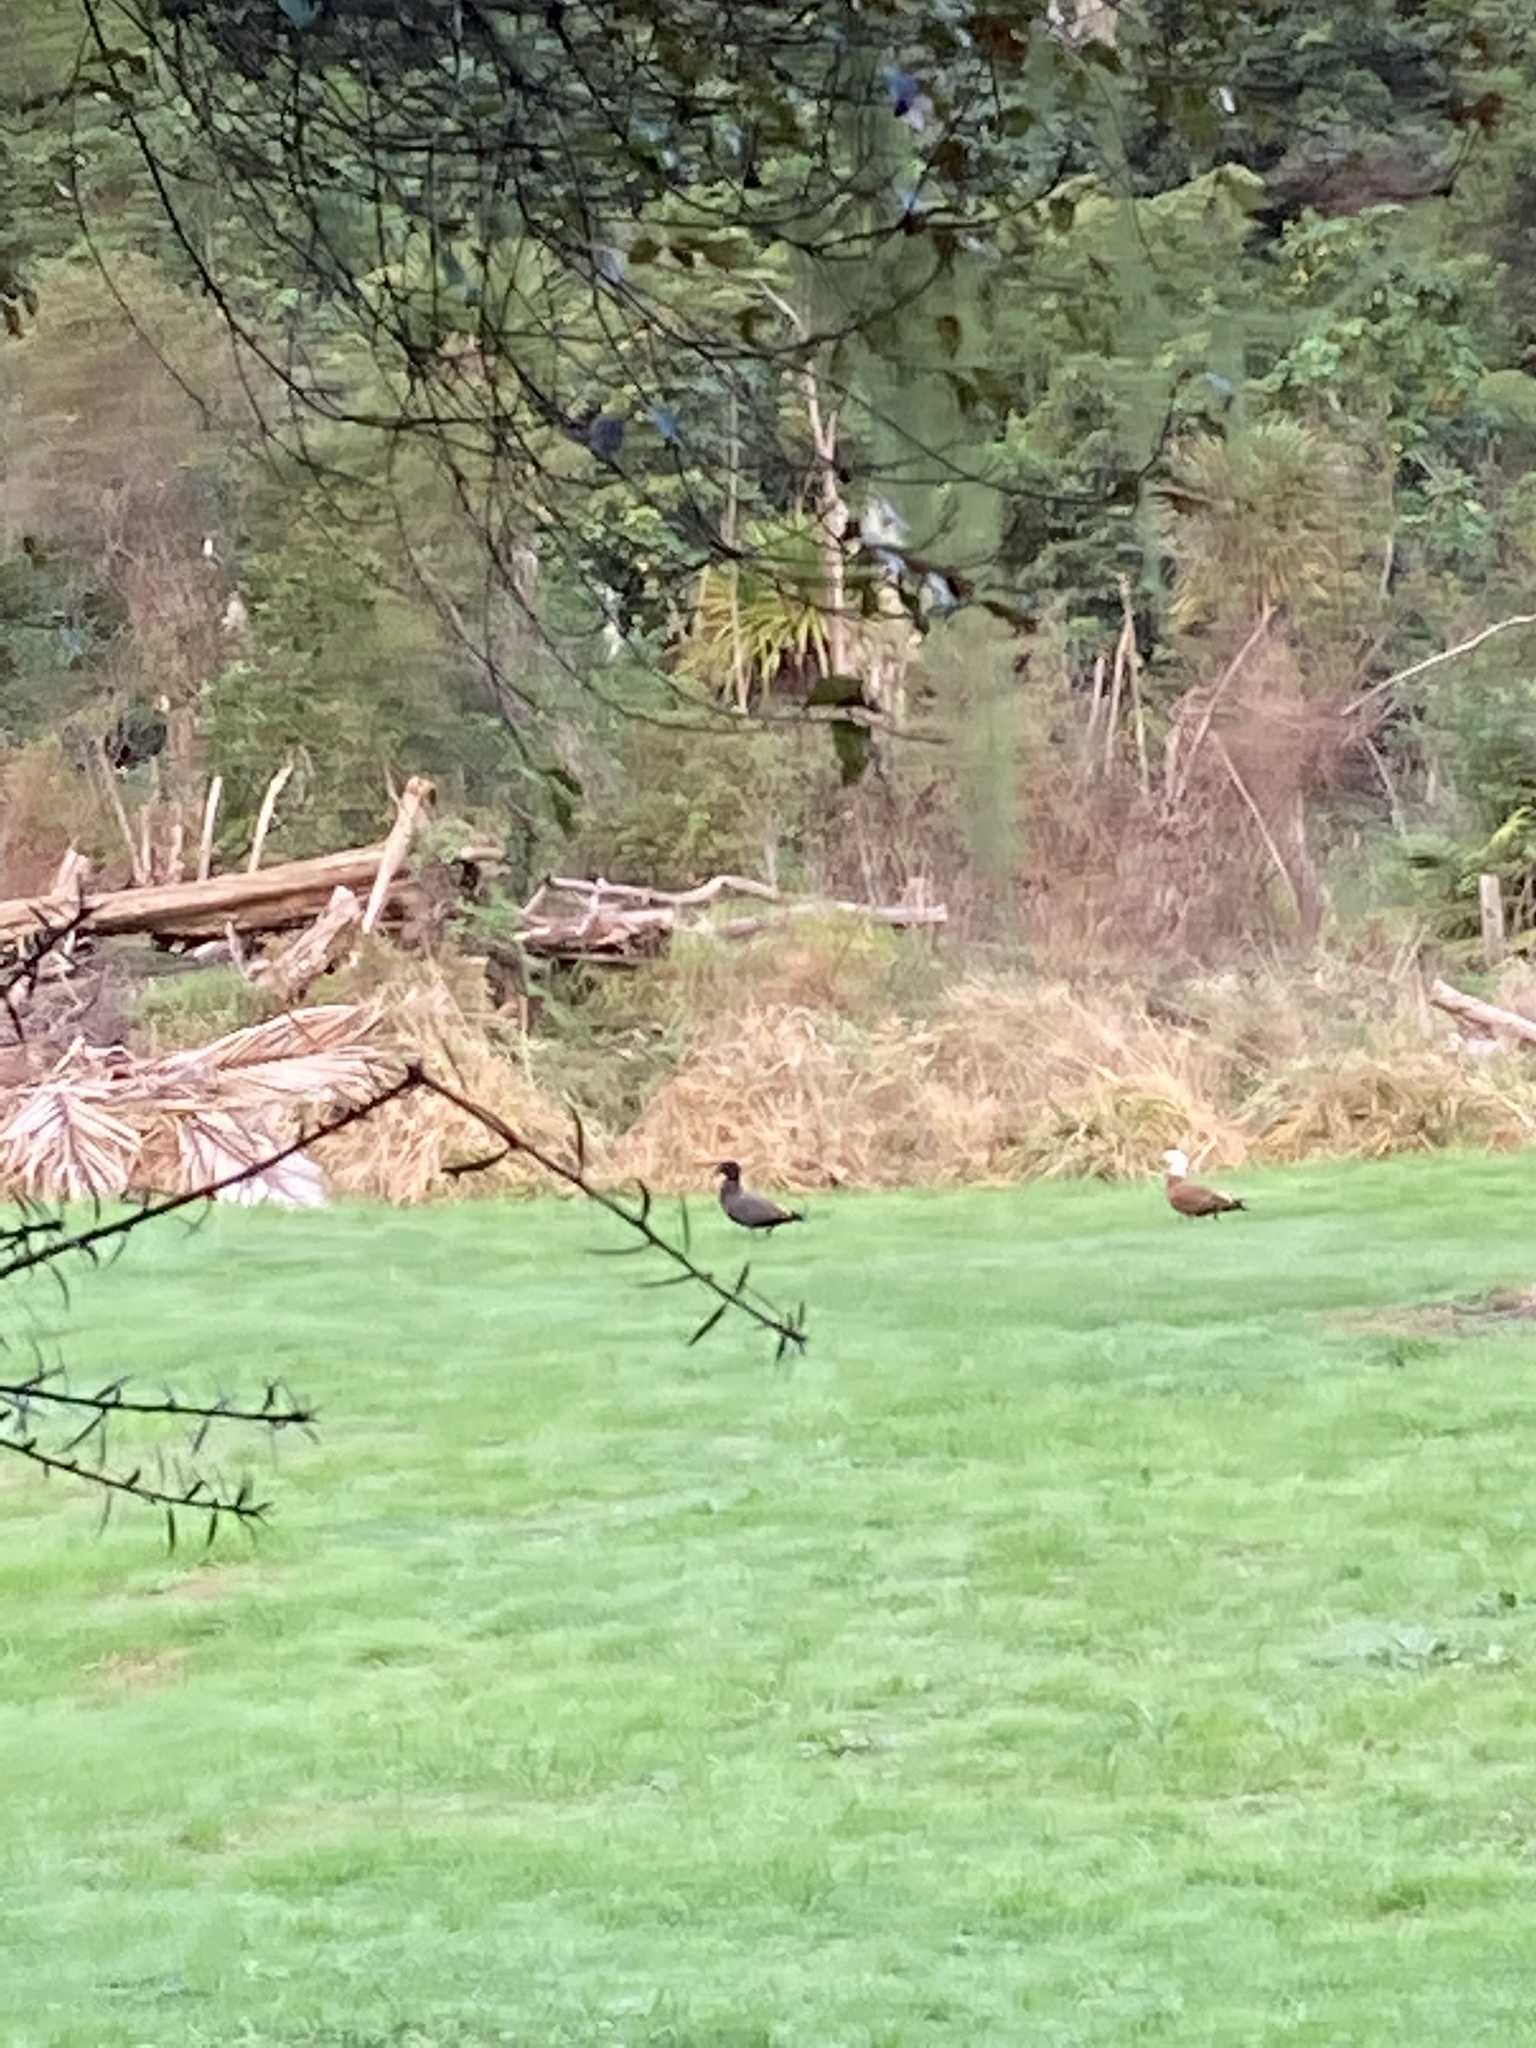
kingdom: Animalia
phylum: Chordata
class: Aves
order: Anseriformes
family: Anatidae
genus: Tadorna
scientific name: Tadorna variegata
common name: Paradise shelduck
